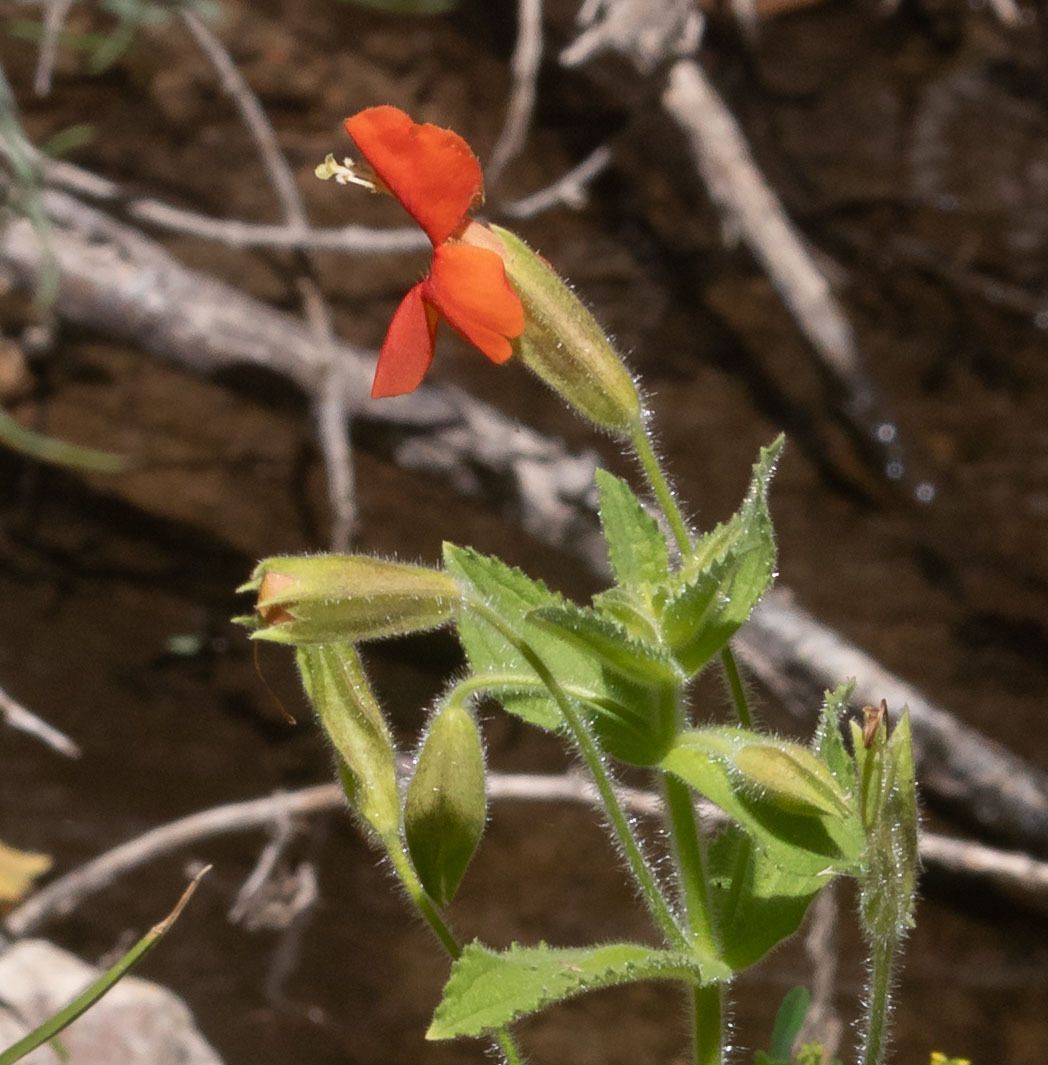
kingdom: Plantae
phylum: Tracheophyta
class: Magnoliopsida
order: Lamiales
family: Phrymaceae
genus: Erythranthe
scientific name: Erythranthe cardinalis
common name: Scarlet monkey-flower
